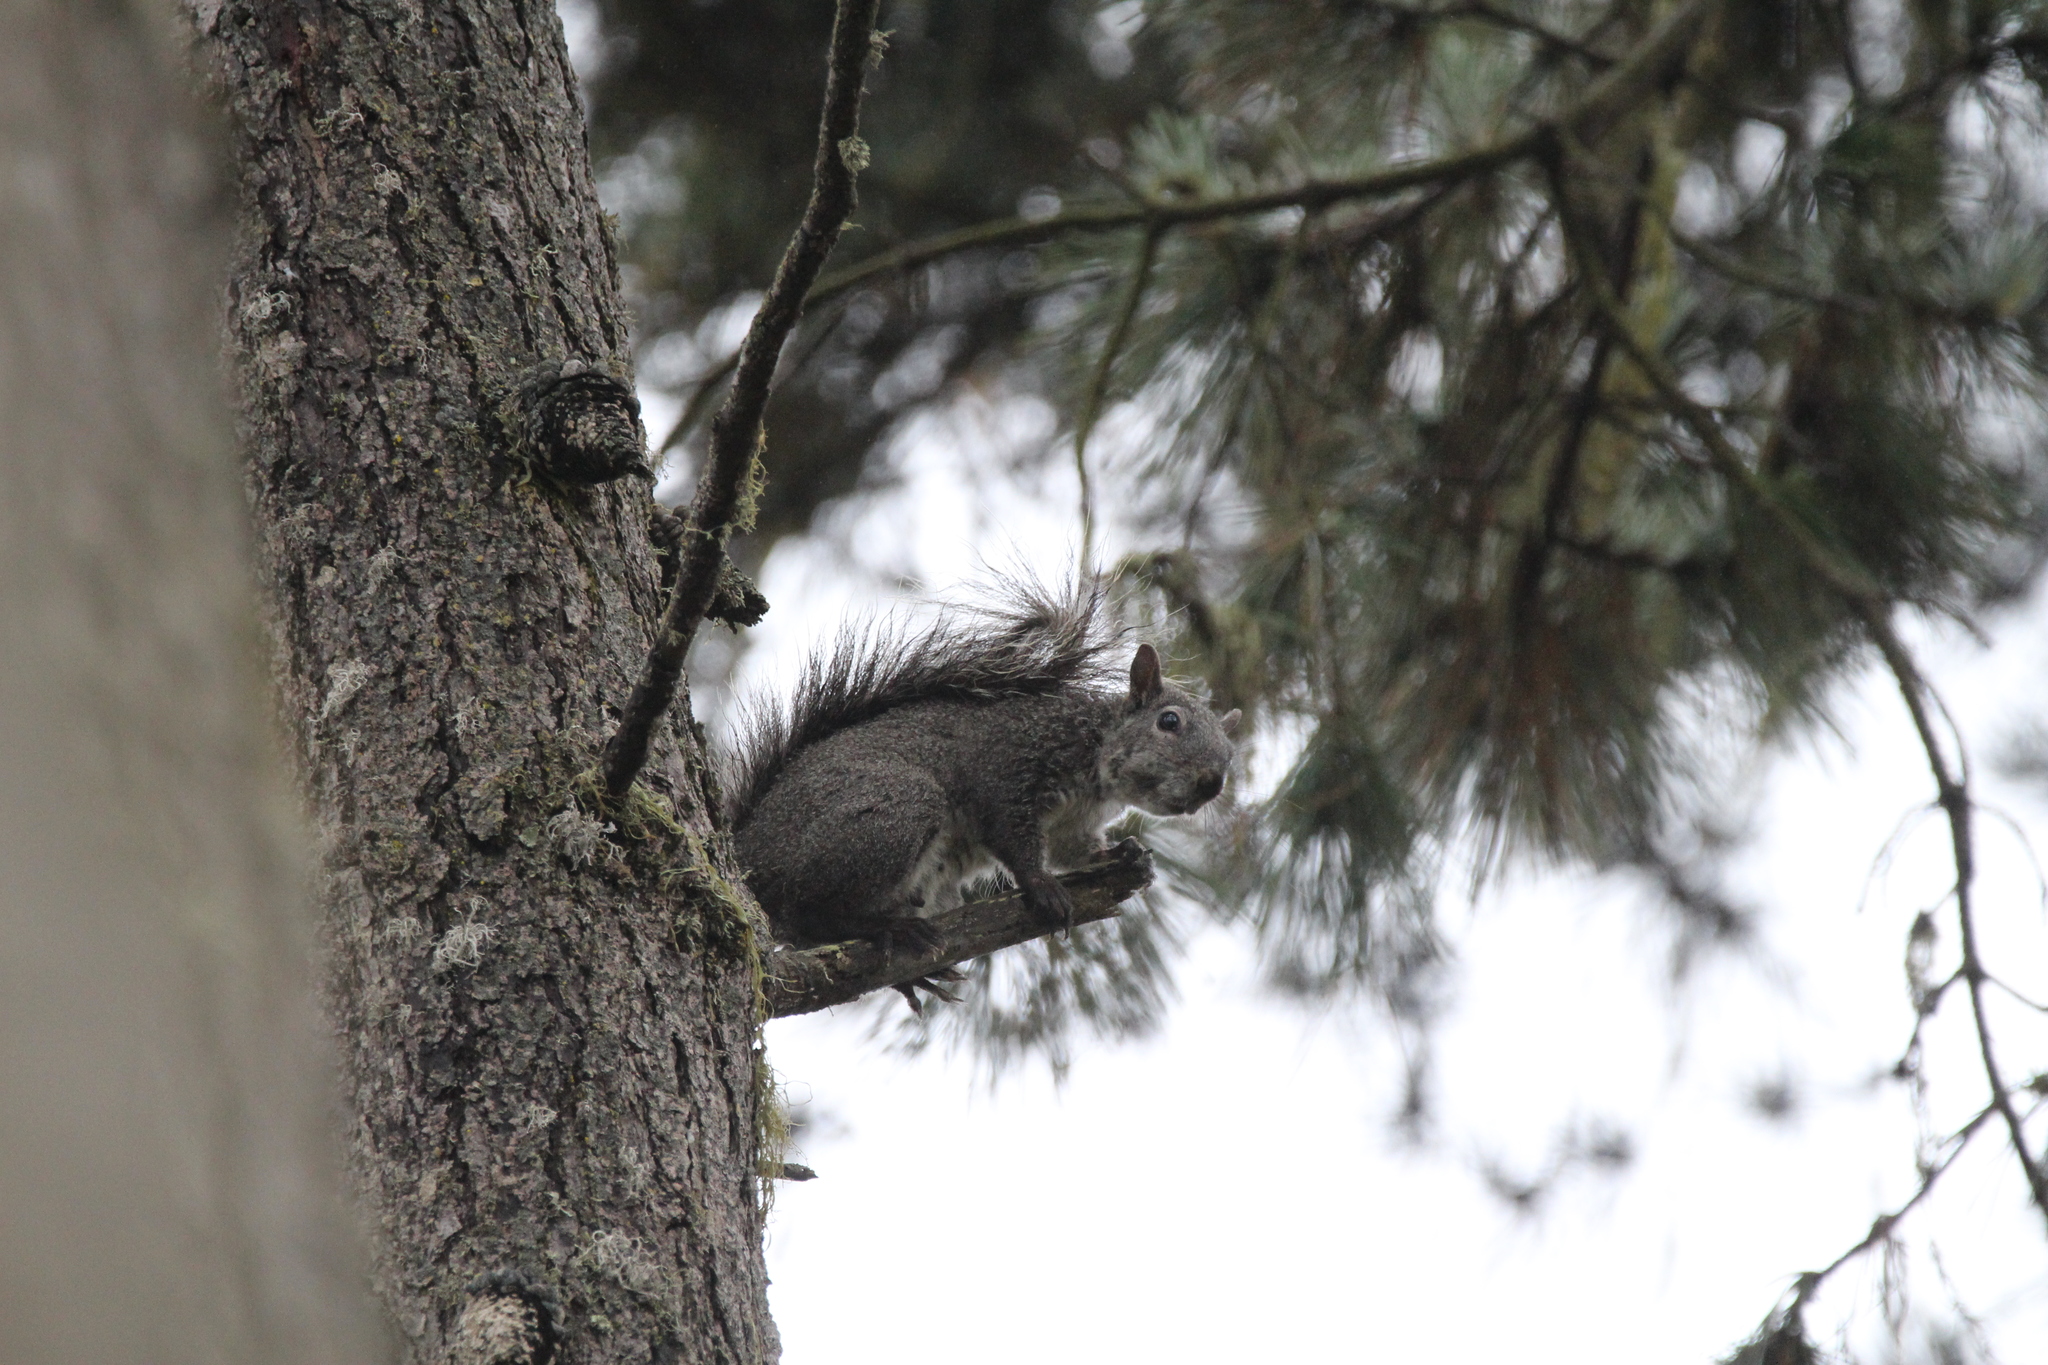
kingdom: Animalia
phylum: Chordata
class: Mammalia
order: Rodentia
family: Sciuridae
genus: Sciurus
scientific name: Sciurus griseus
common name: Western gray squirrel
